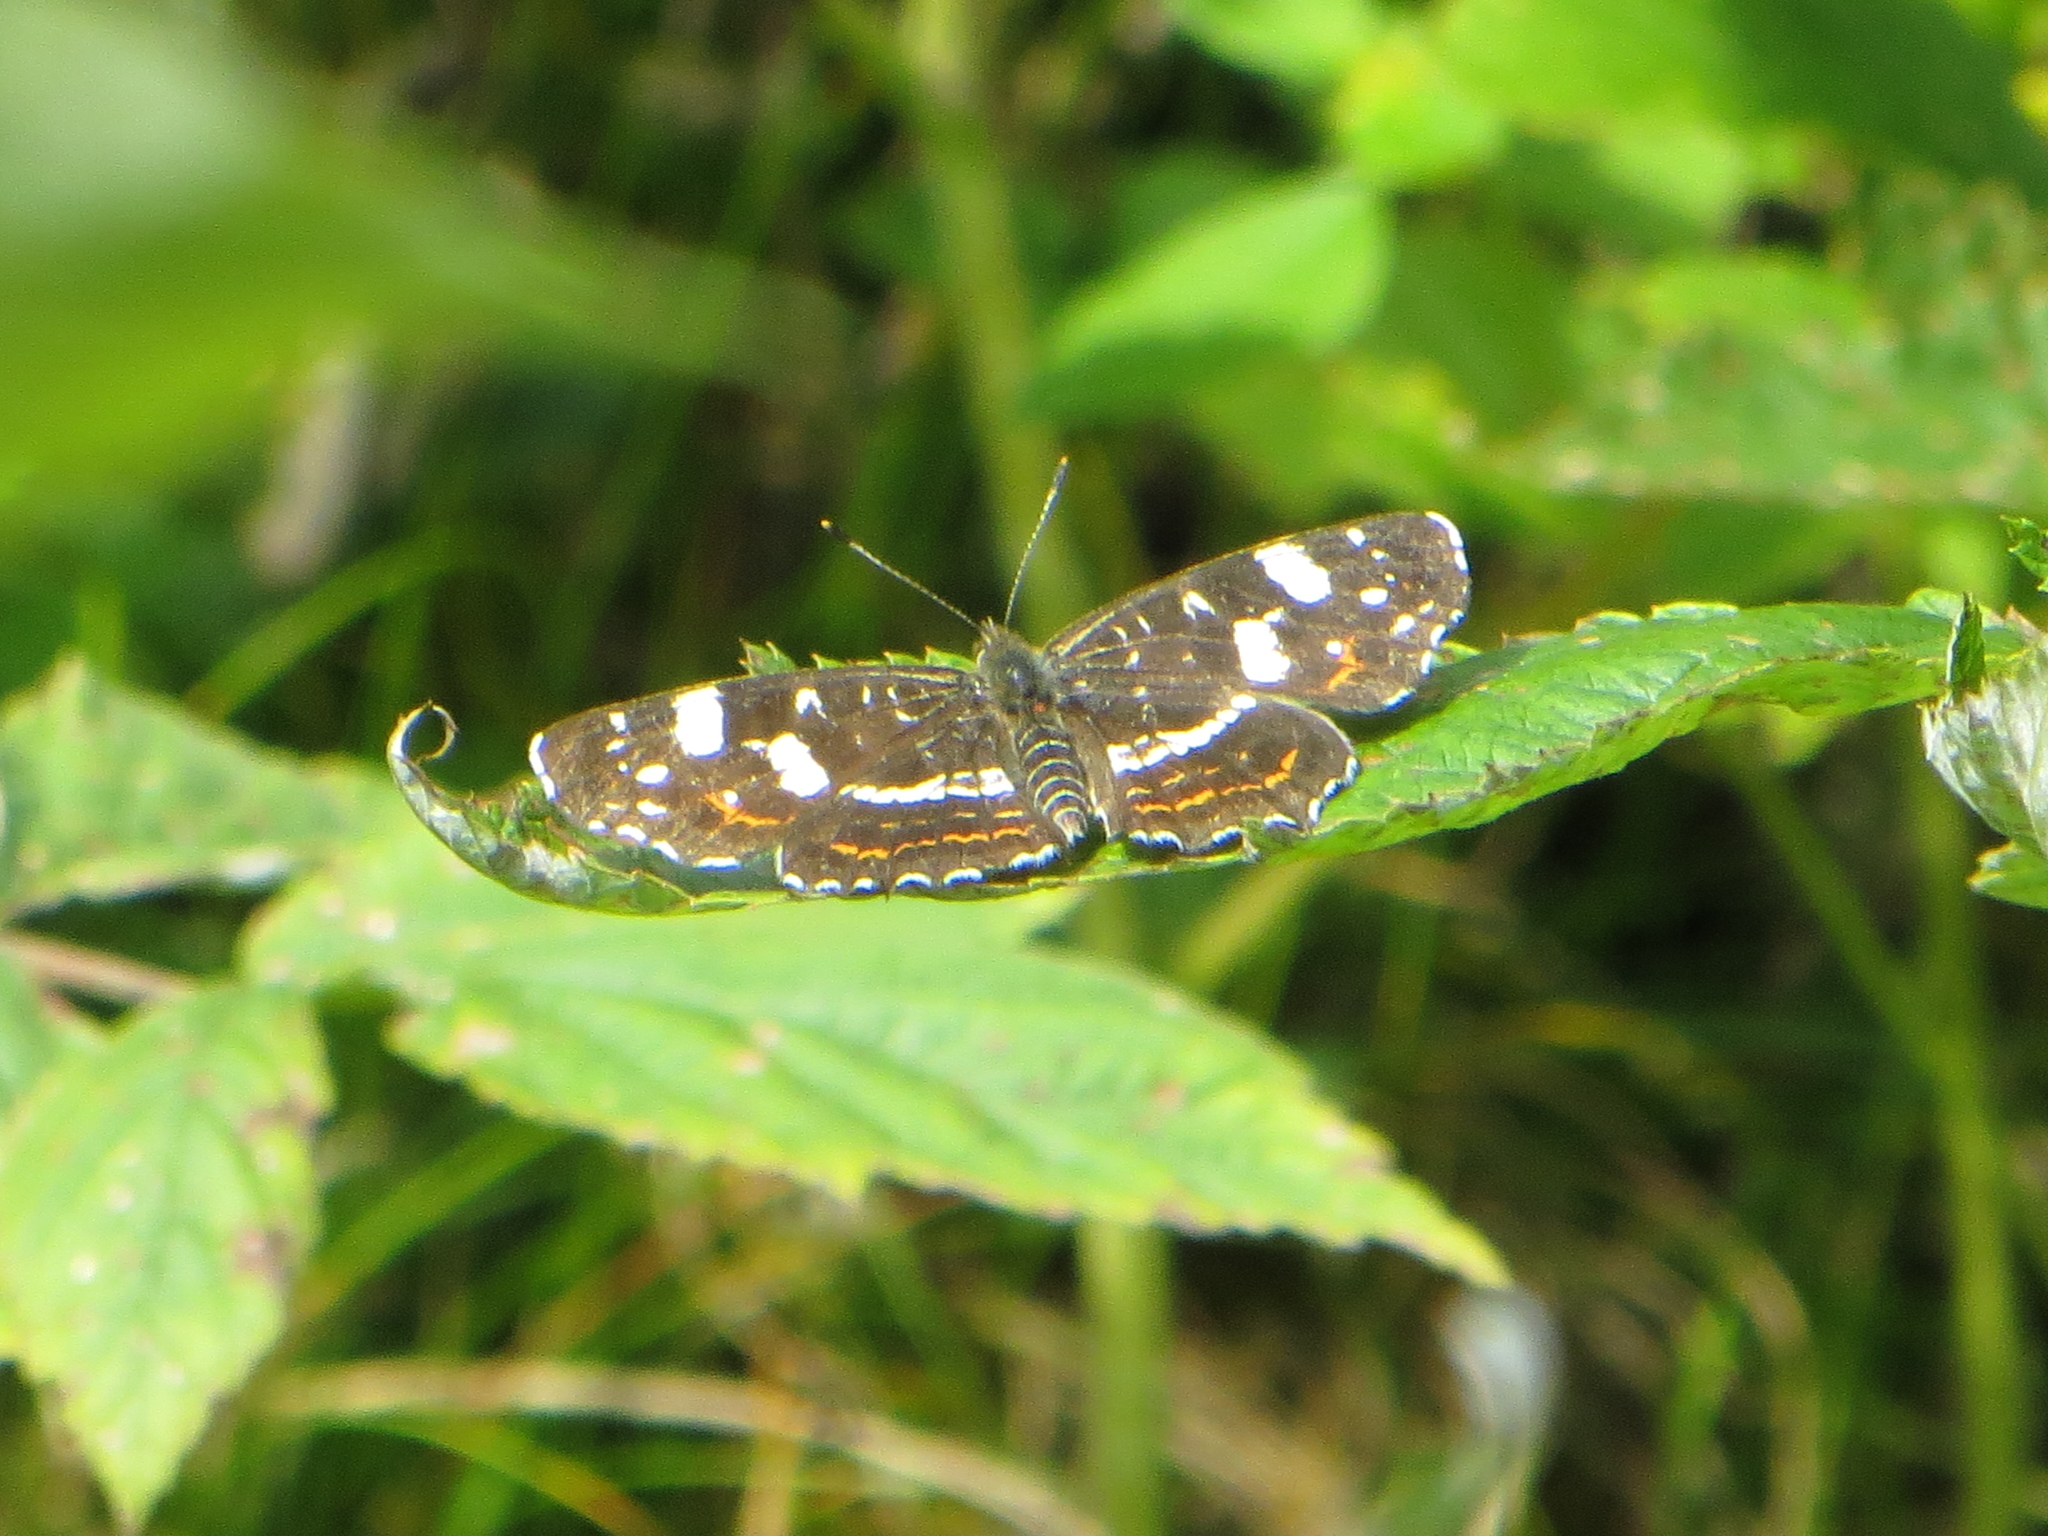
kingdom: Animalia
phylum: Arthropoda
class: Insecta
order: Lepidoptera
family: Nymphalidae
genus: Araschnia
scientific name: Araschnia levana
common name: Map butterfly
